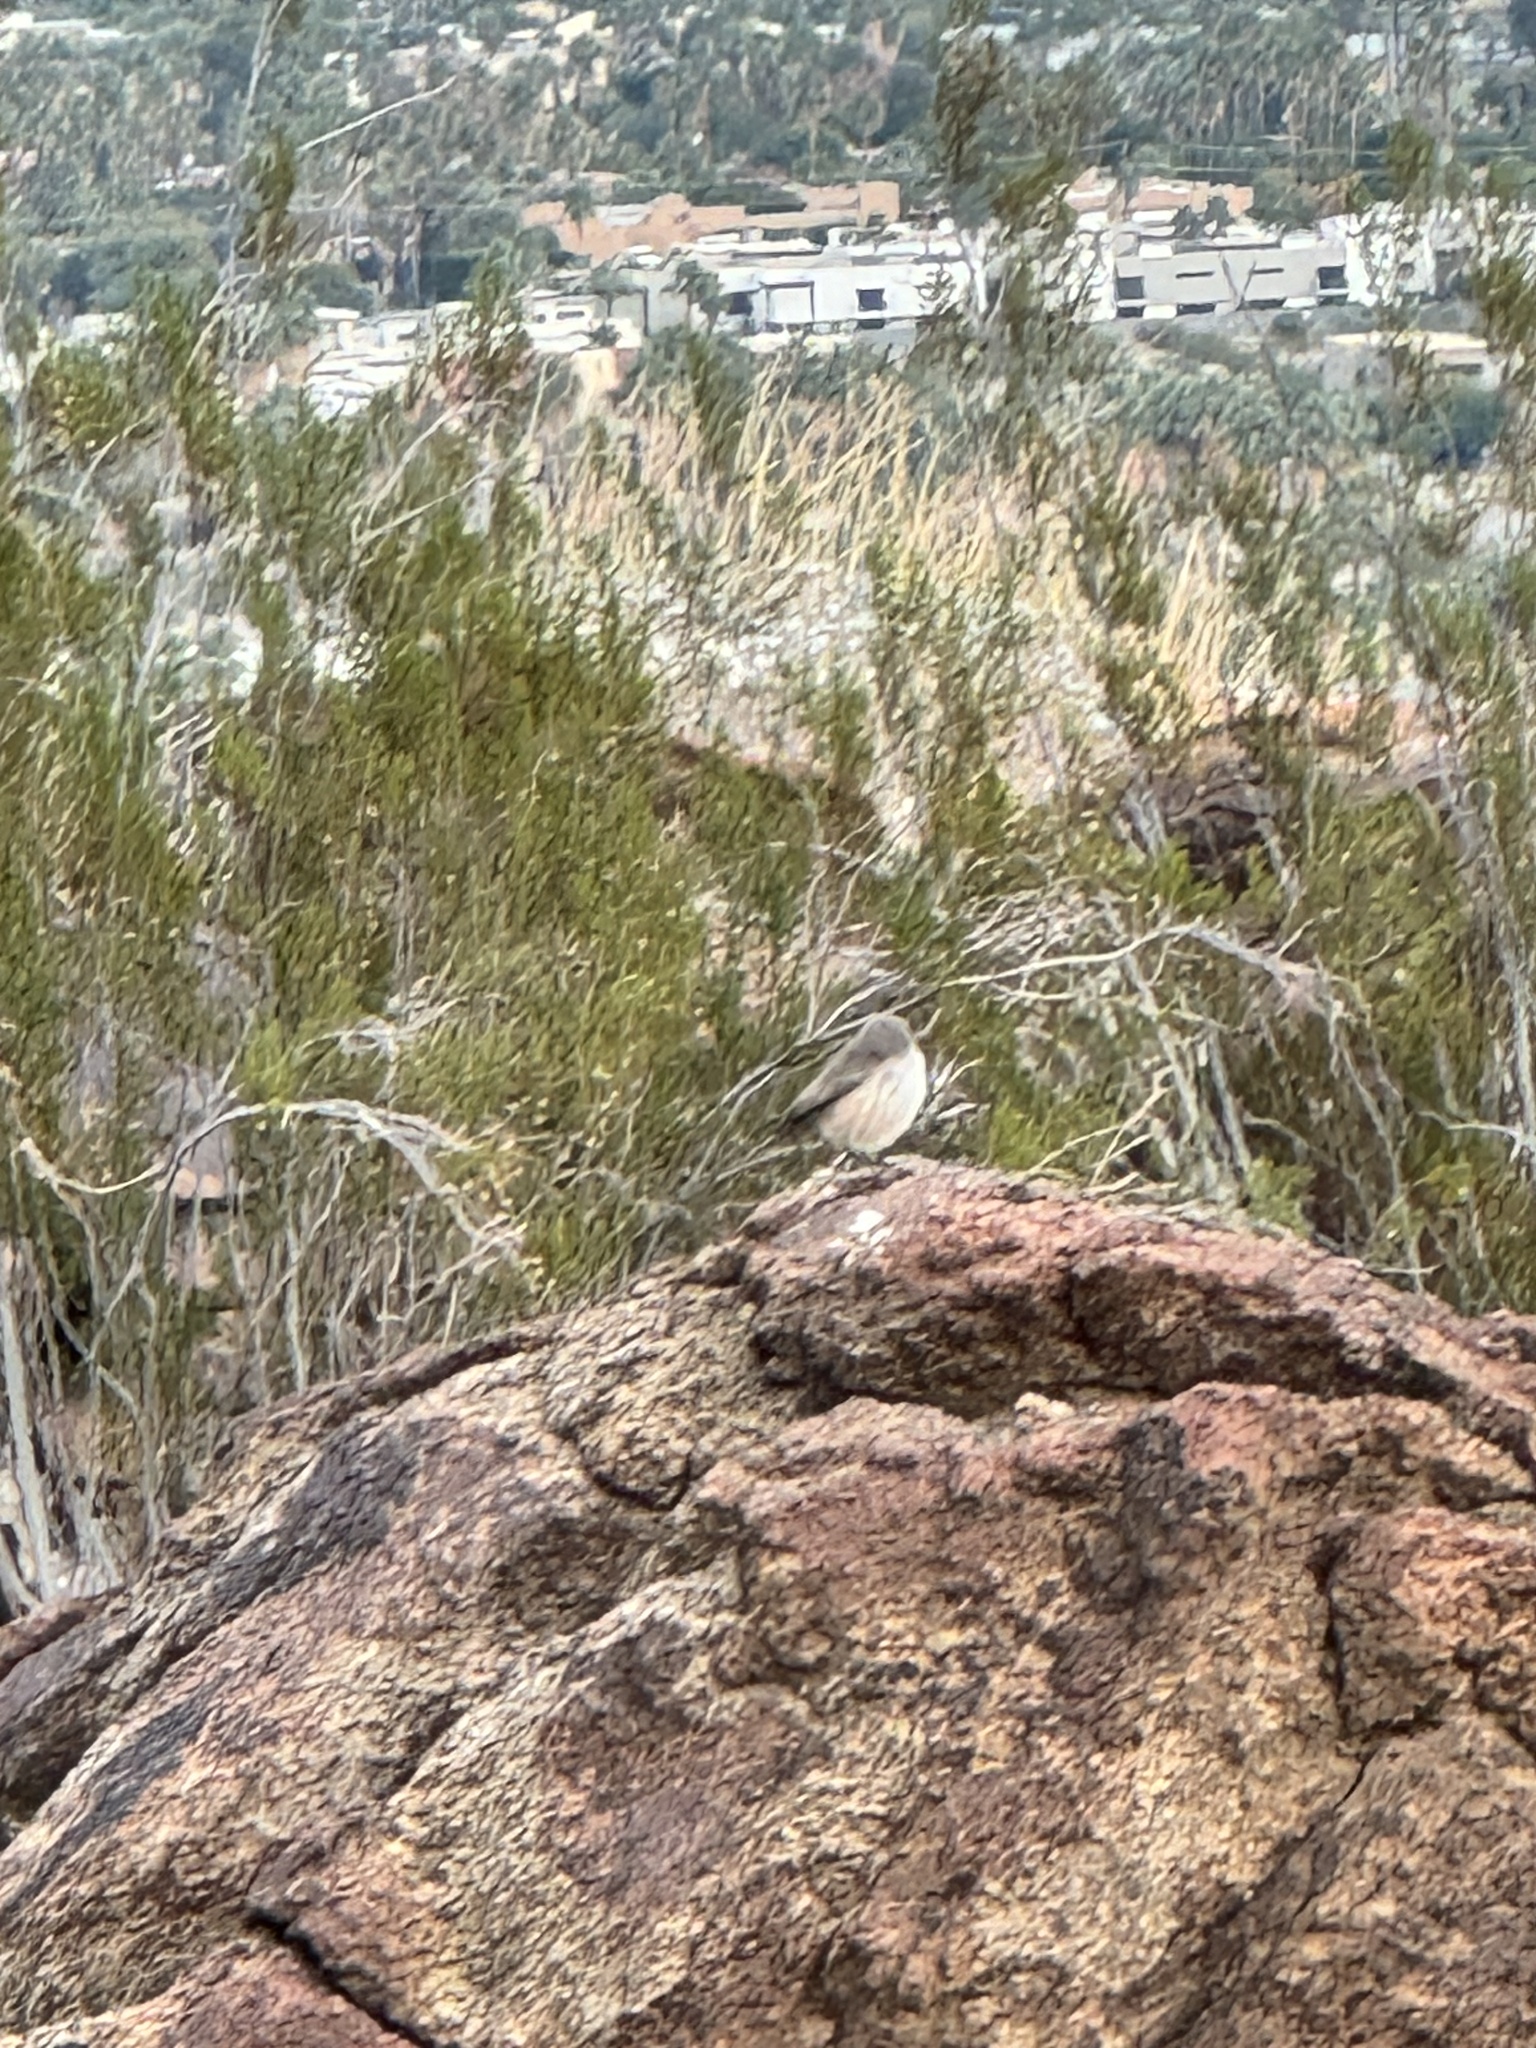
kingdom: Animalia
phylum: Chordata
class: Aves
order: Passeriformes
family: Troglodytidae
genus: Salpinctes
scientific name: Salpinctes obsoletus
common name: Rock wren
